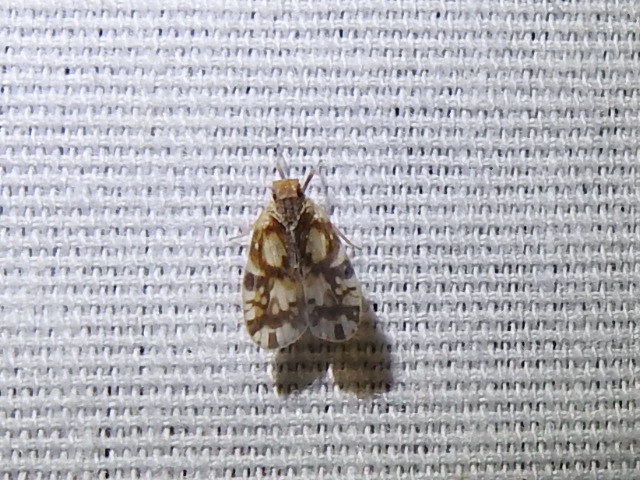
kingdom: Animalia
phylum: Arthropoda
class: Insecta
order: Hemiptera
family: Cixiidae
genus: Bothriocera
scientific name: Bothriocera knulli
